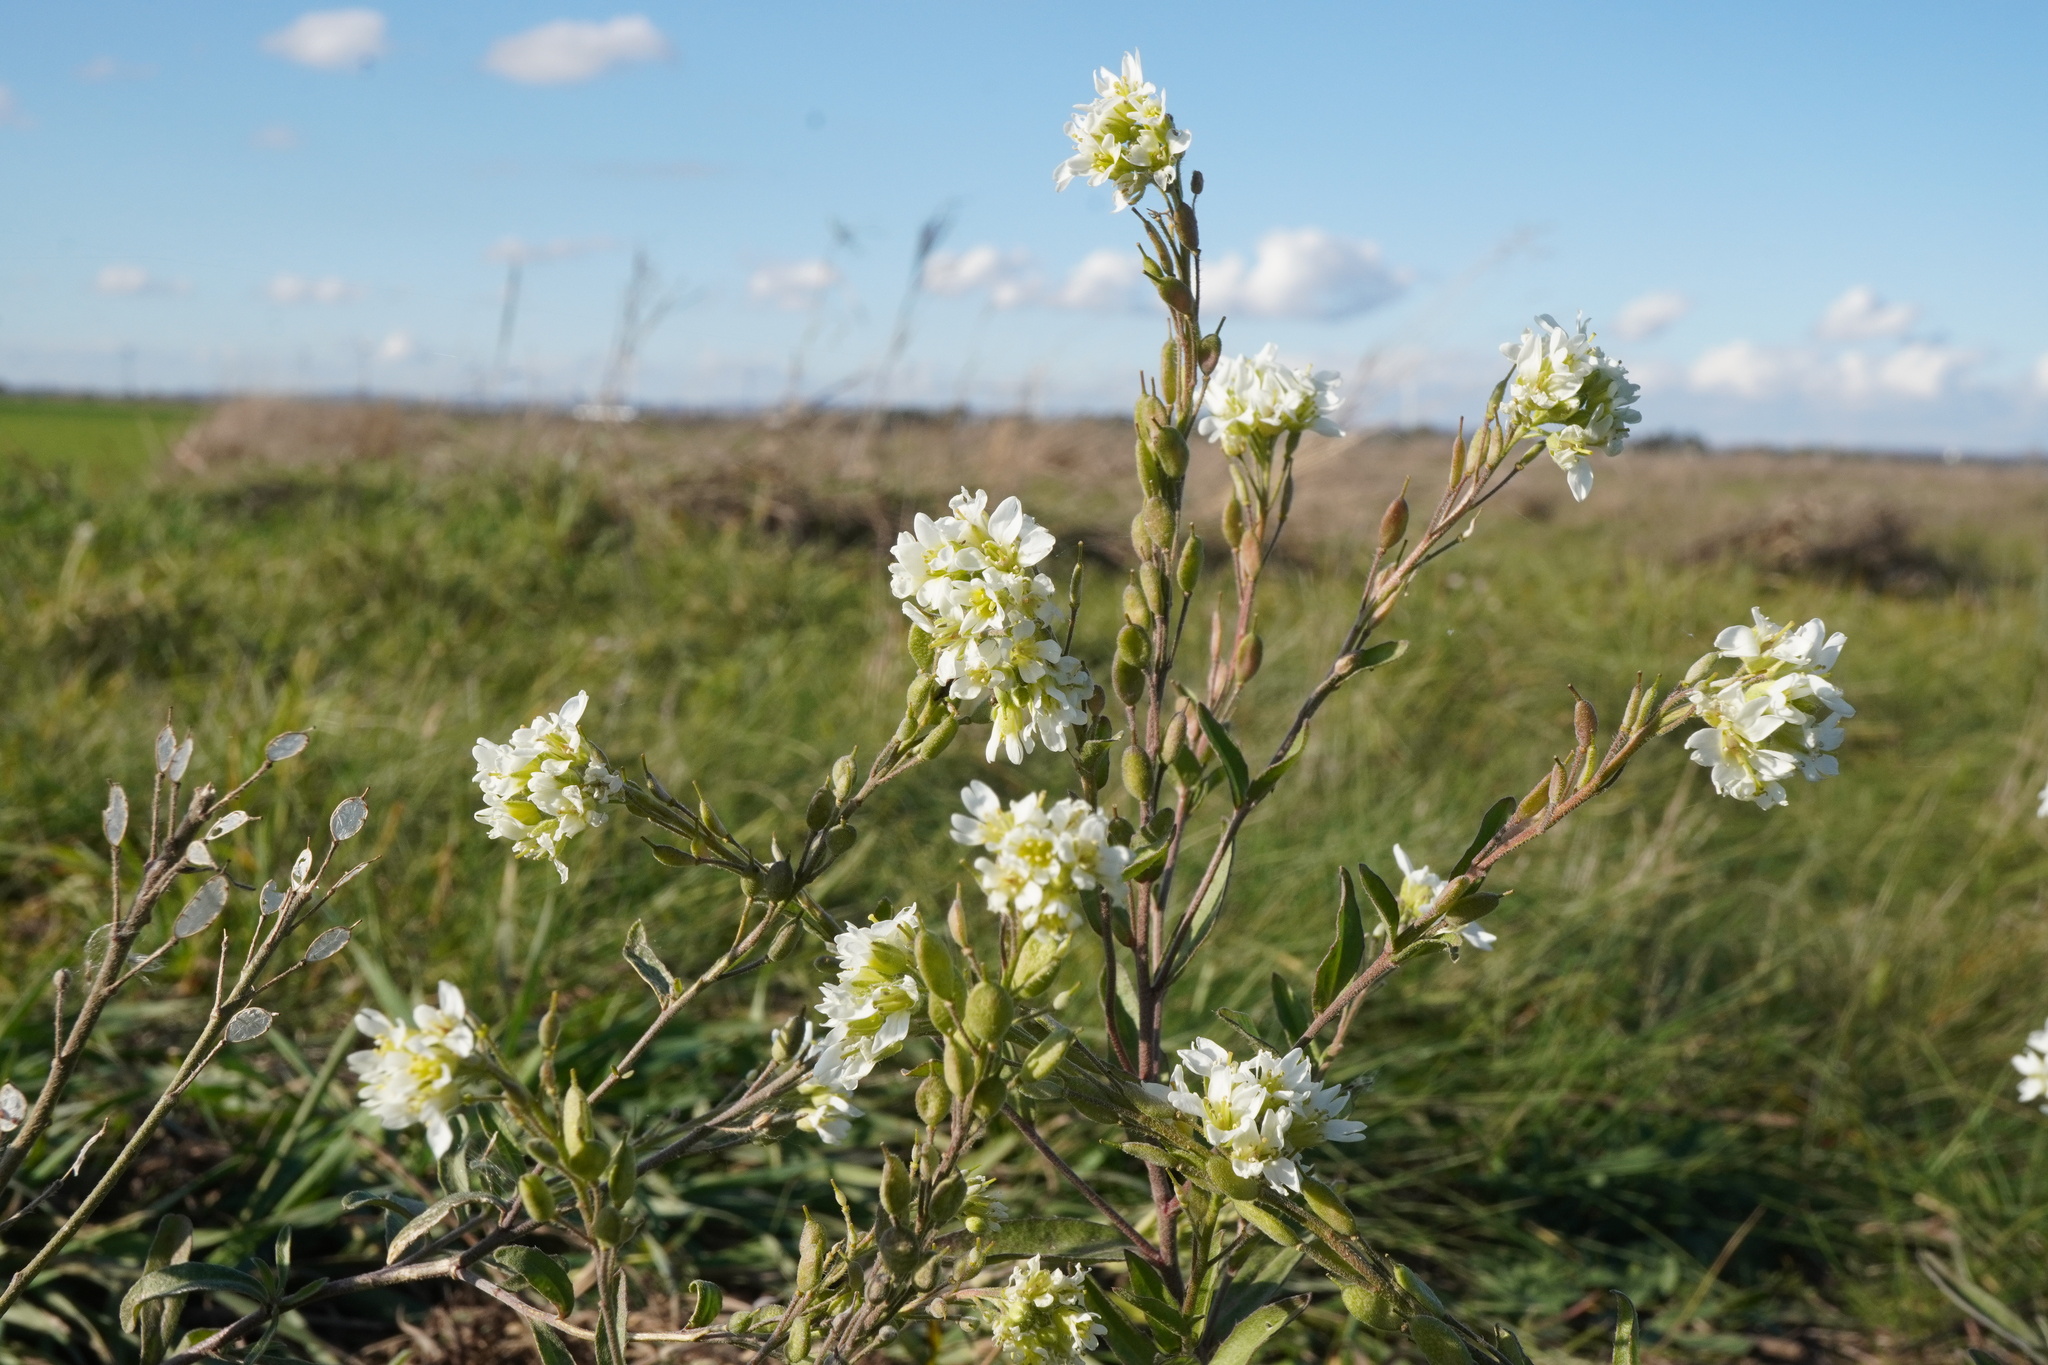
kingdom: Plantae
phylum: Tracheophyta
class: Magnoliopsida
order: Brassicales
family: Brassicaceae
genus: Berteroa
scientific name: Berteroa incana
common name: Hoary alison
